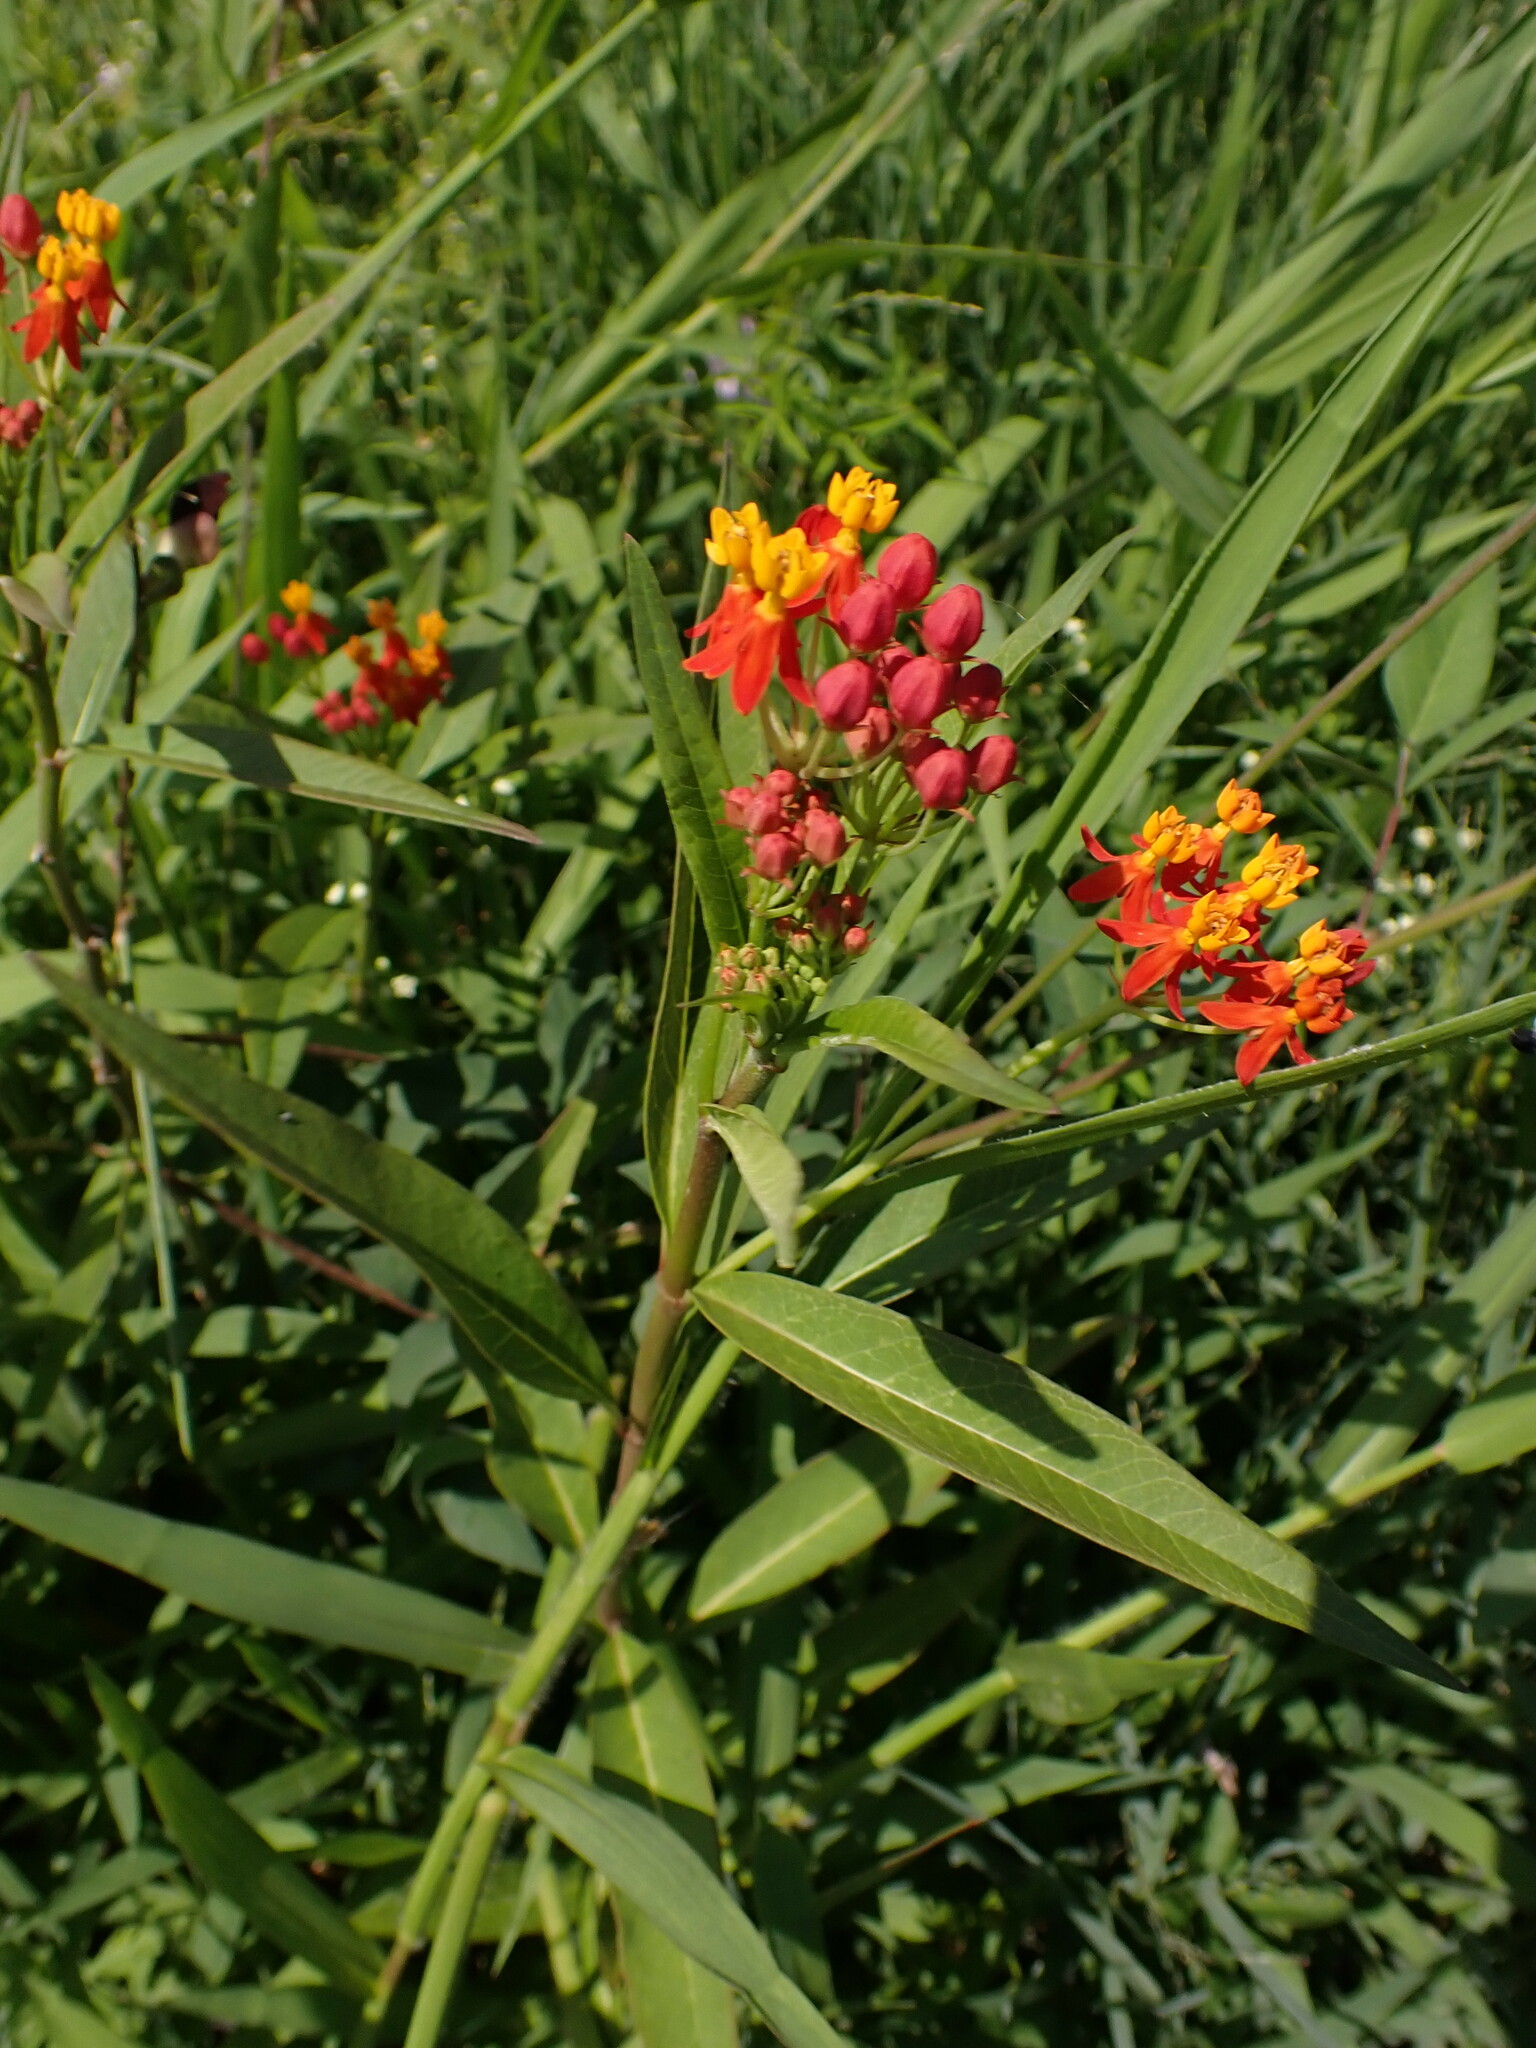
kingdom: Plantae
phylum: Tracheophyta
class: Magnoliopsida
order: Gentianales
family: Apocynaceae
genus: Asclepias
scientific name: Asclepias curassavica
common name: Bloodflower
